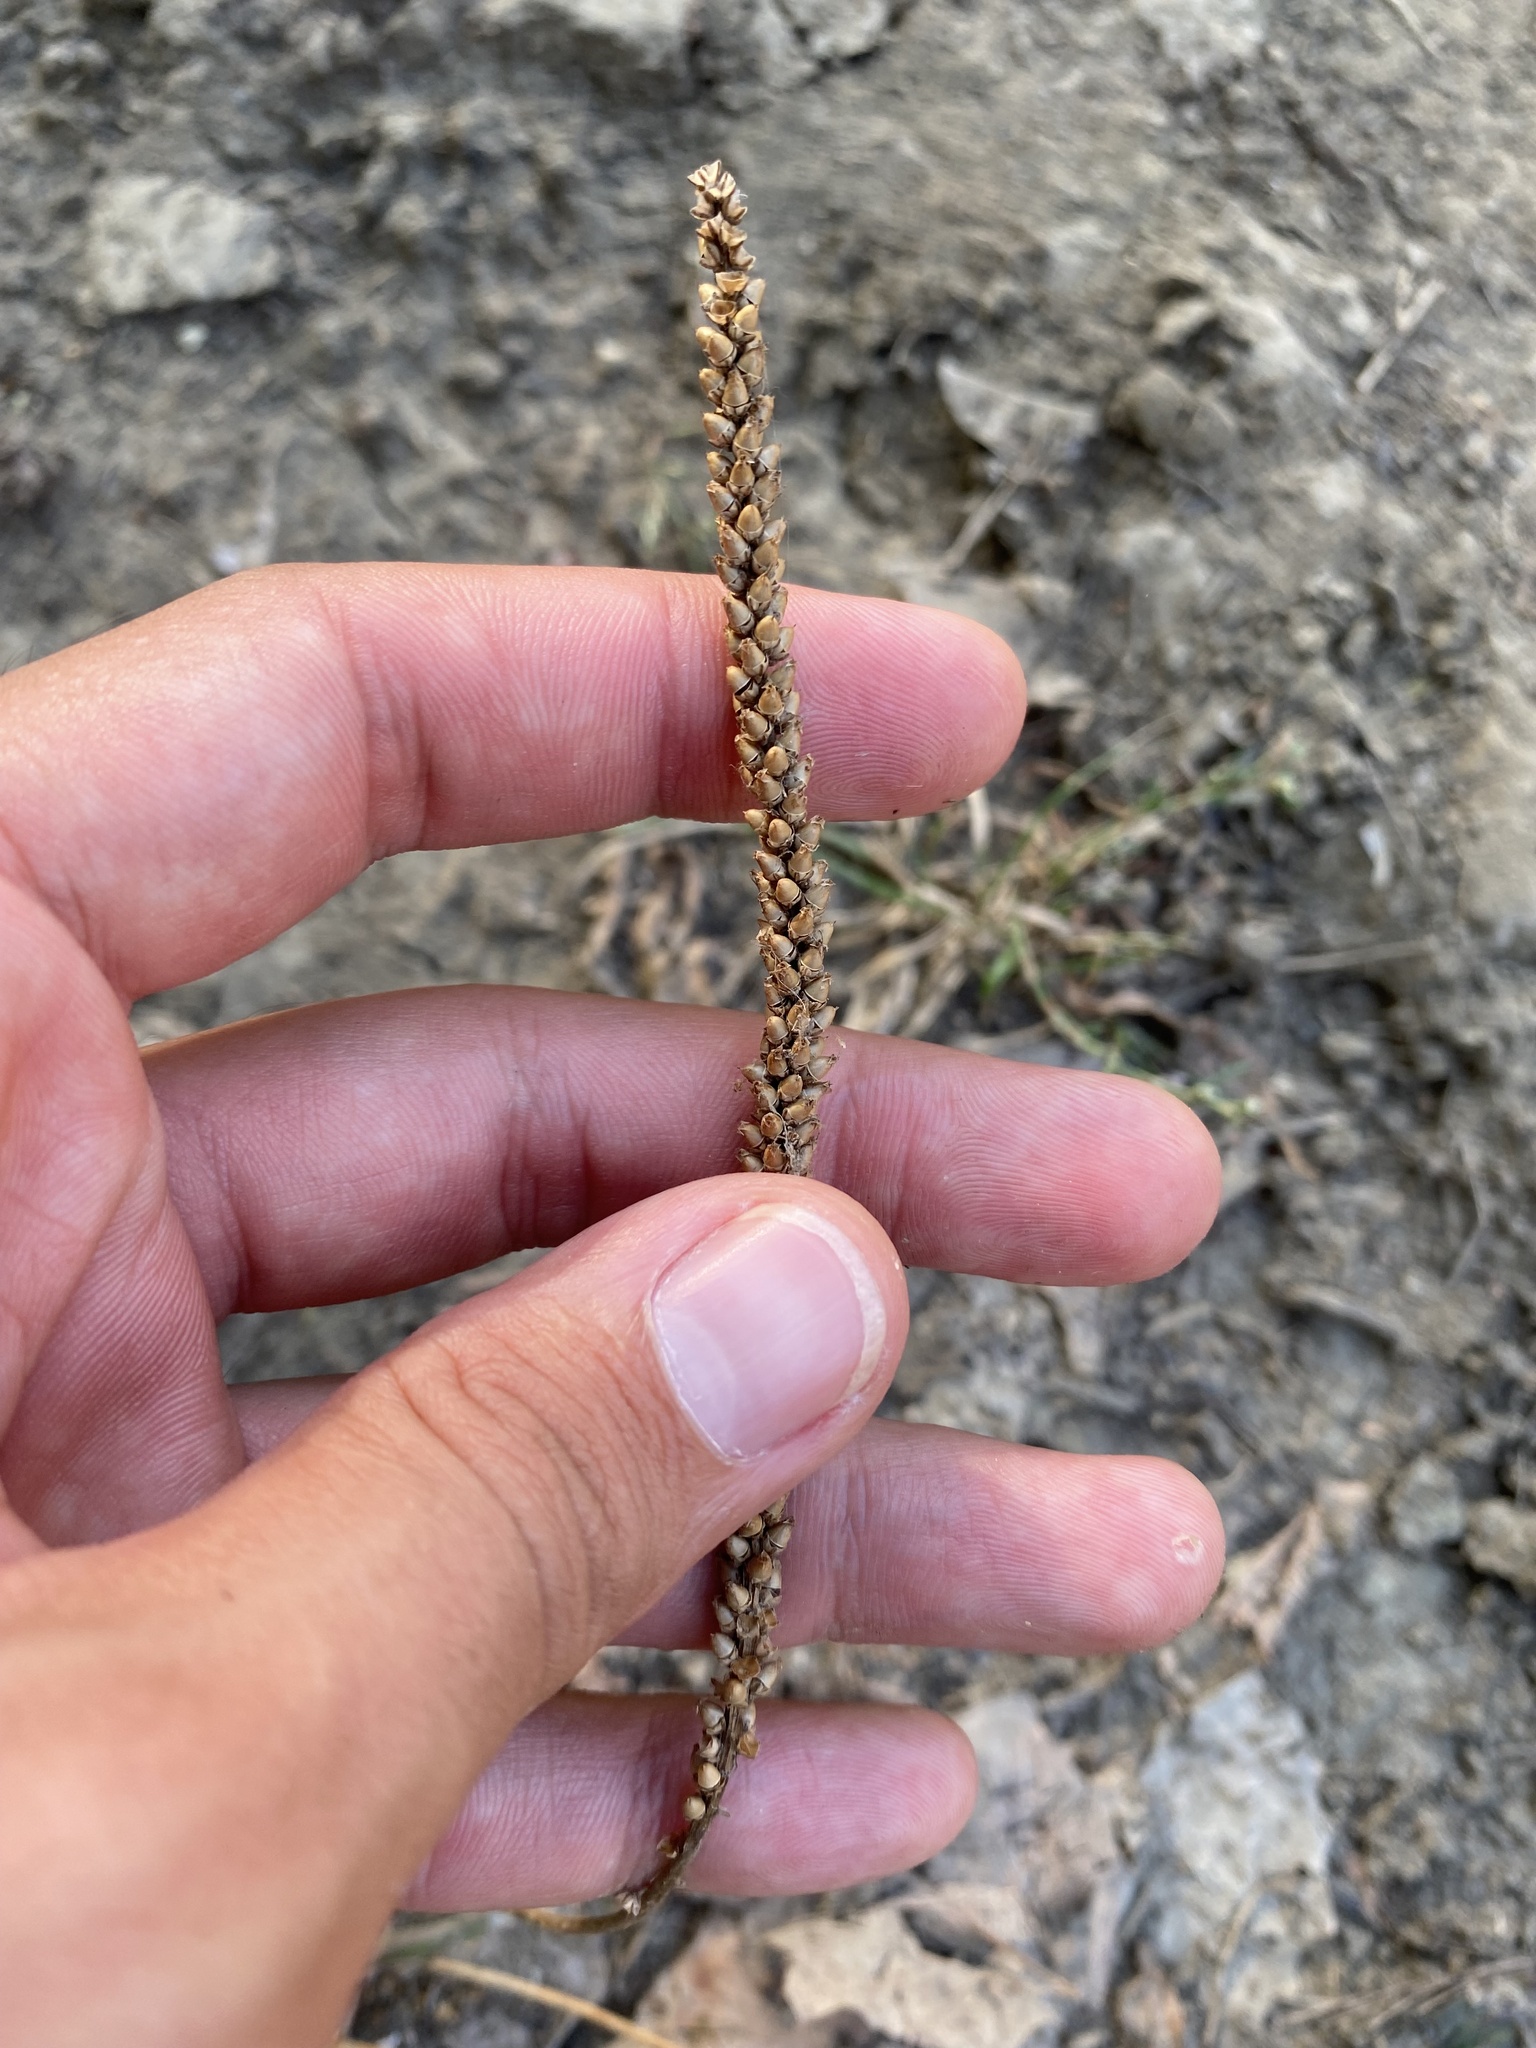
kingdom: Plantae
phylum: Tracheophyta
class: Magnoliopsida
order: Lamiales
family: Plantaginaceae
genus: Plantago
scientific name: Plantago major
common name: Common plantain
